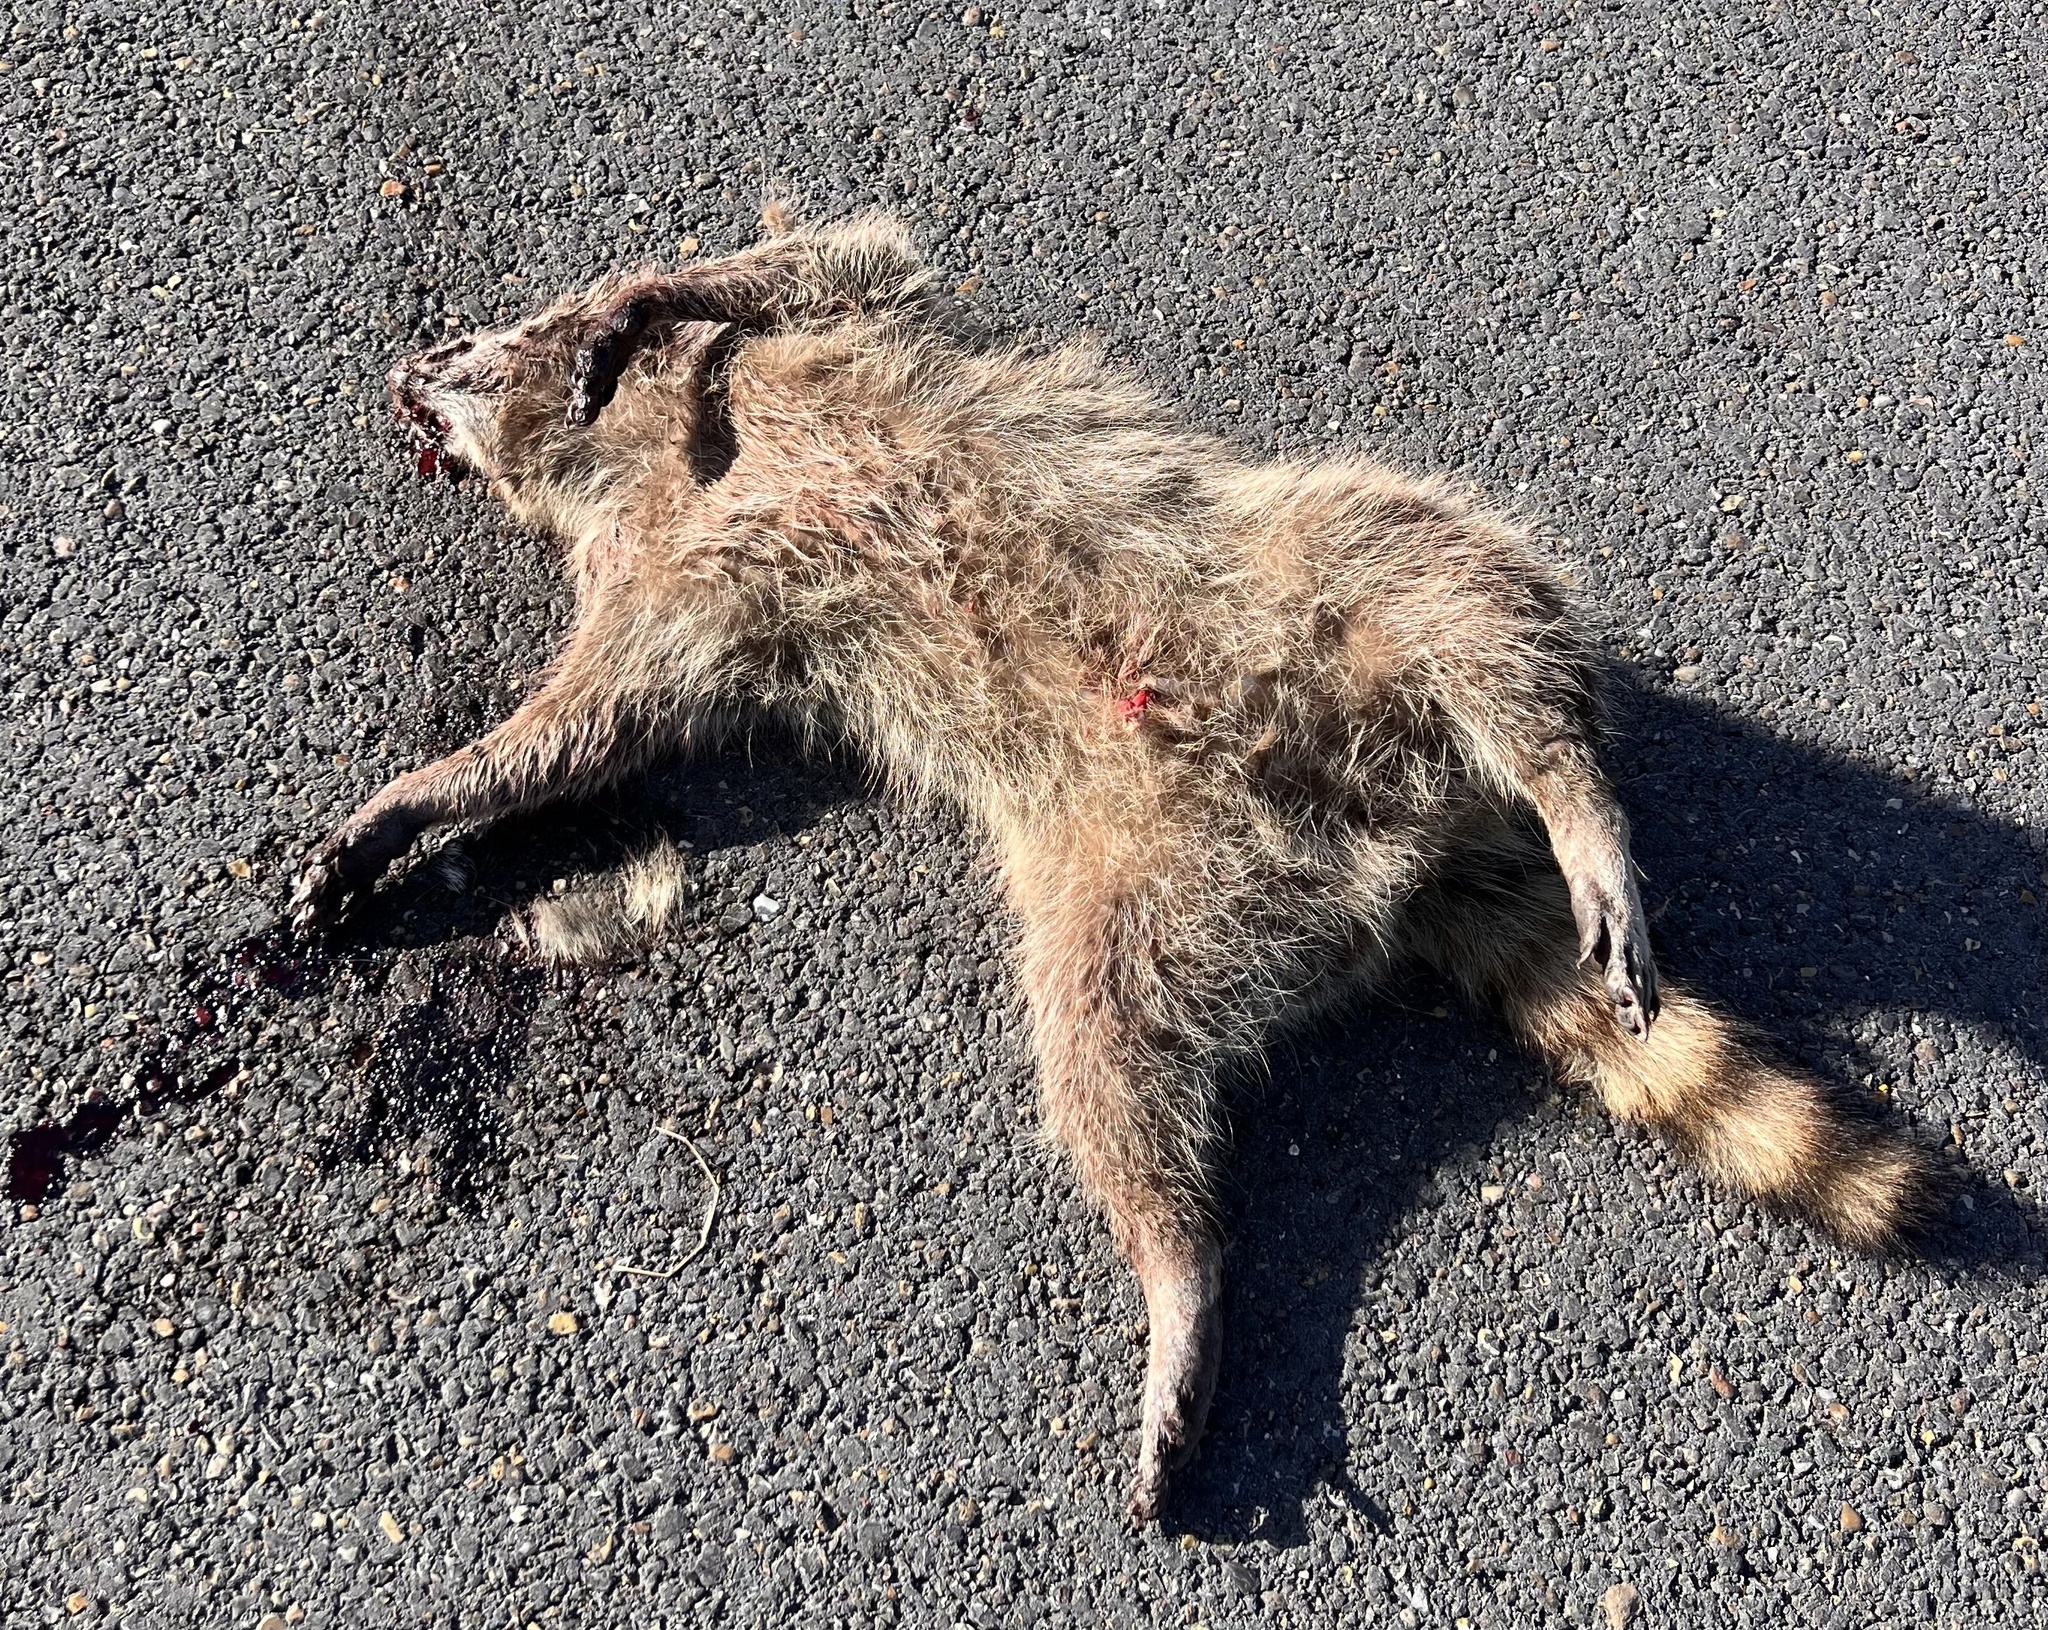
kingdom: Animalia
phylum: Chordata
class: Mammalia
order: Carnivora
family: Procyonidae
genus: Procyon
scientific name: Procyon lotor
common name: Raccoon
